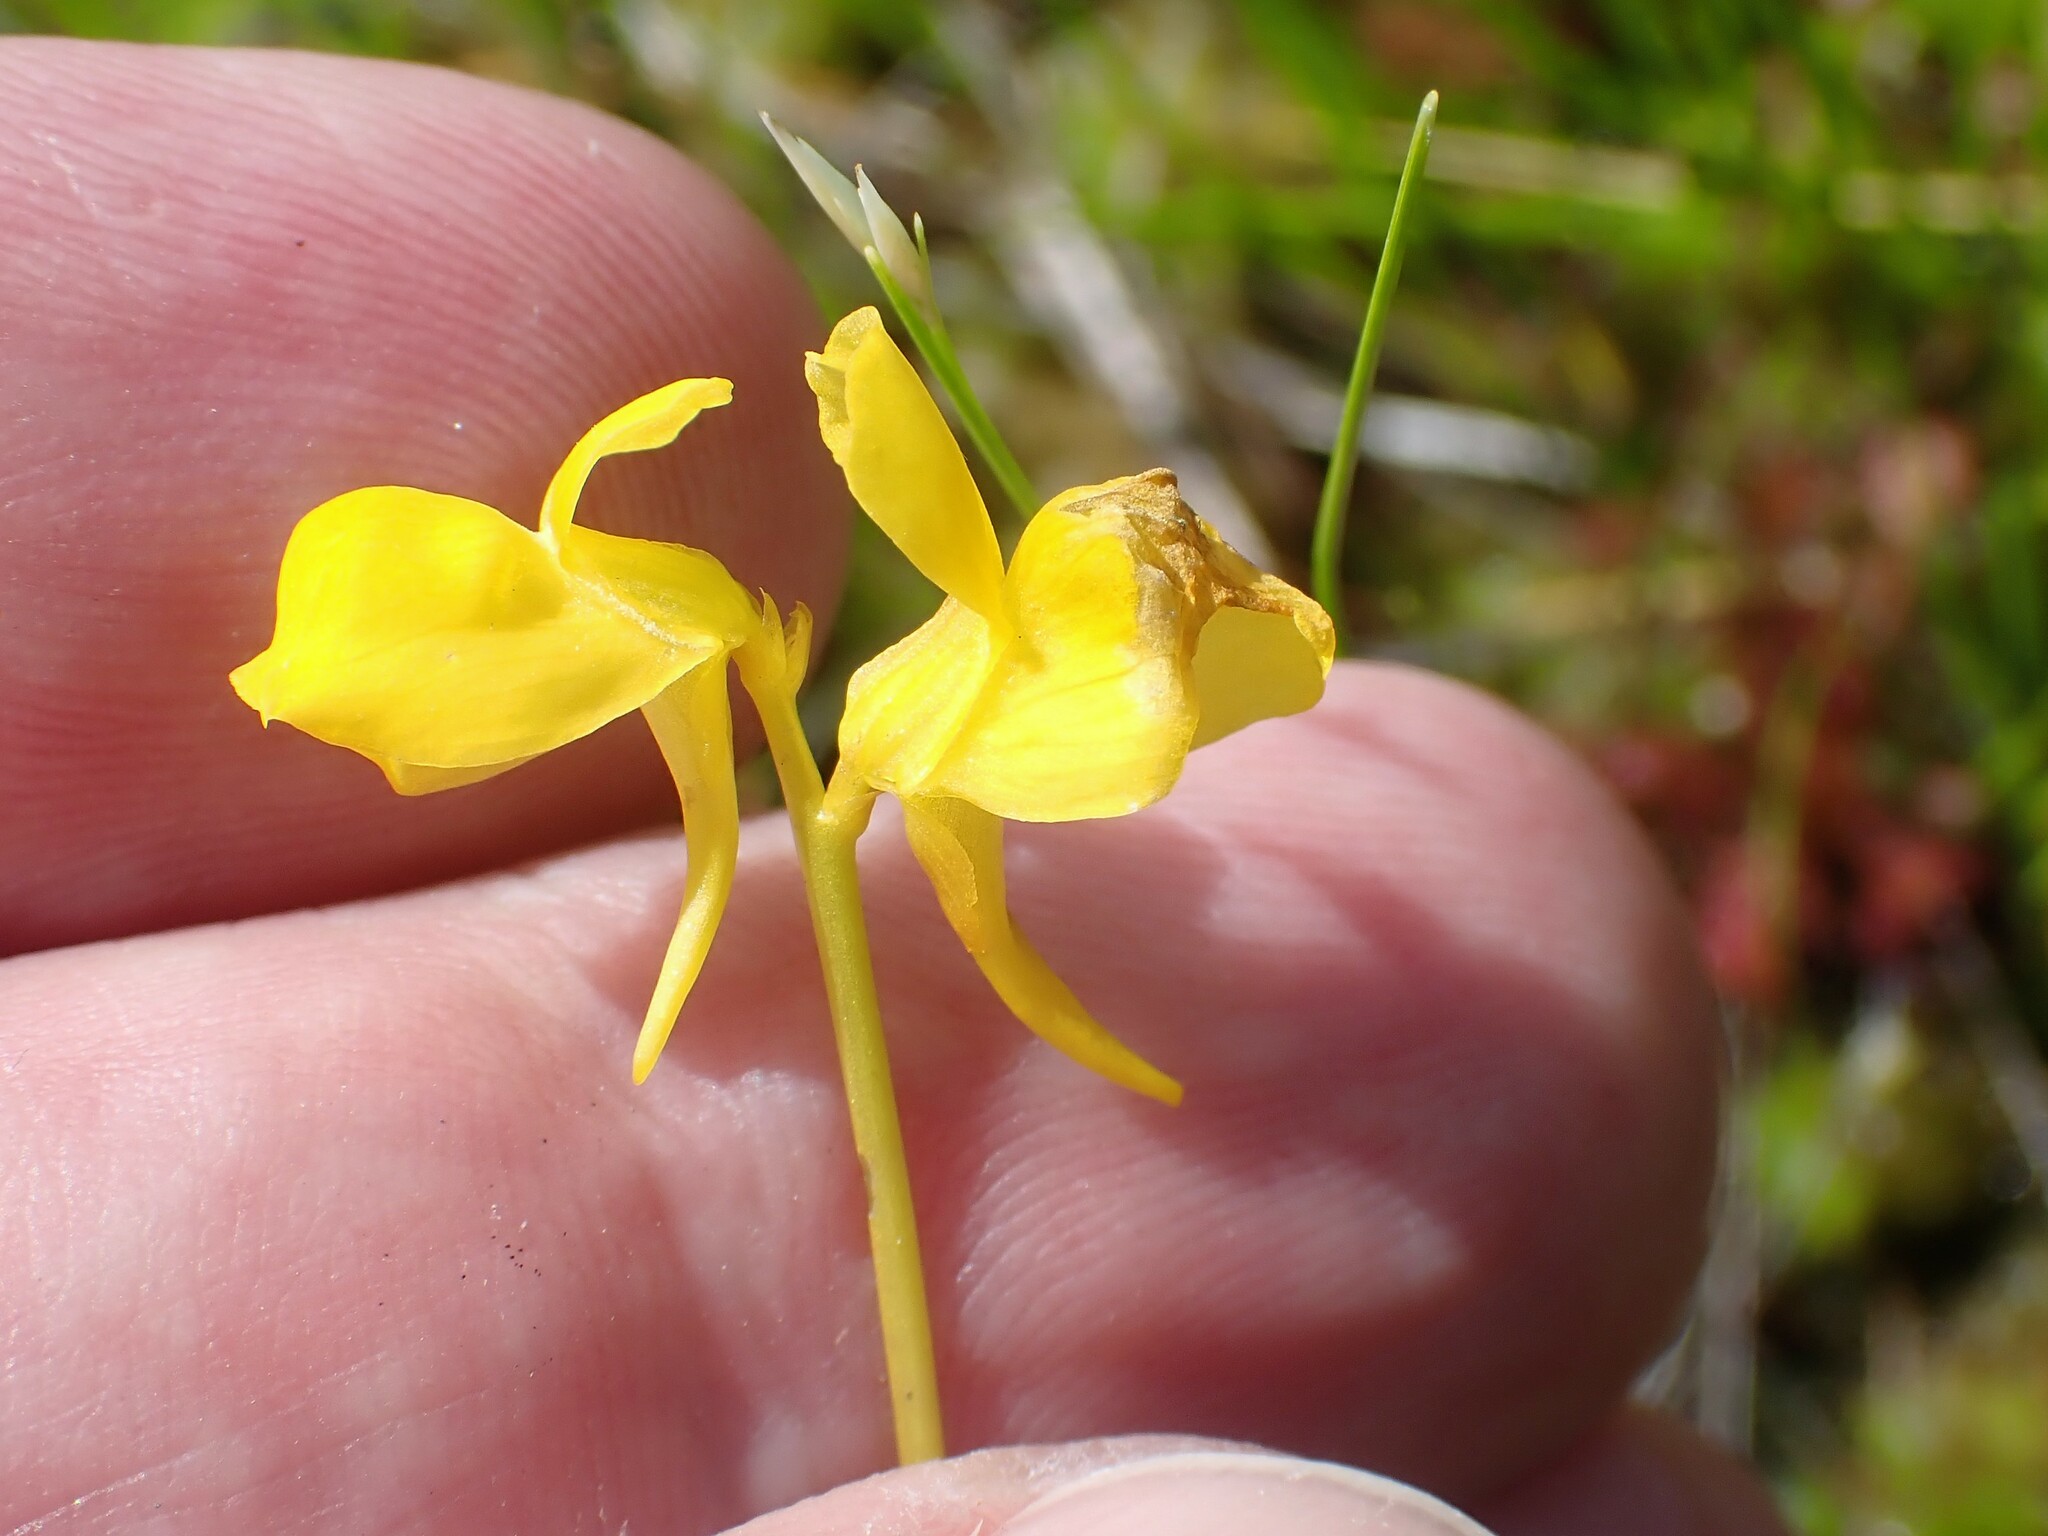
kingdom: Plantae
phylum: Tracheophyta
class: Magnoliopsida
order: Lamiales
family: Lentibulariaceae
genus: Utricularia
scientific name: Utricularia cornuta
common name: Horned bladderwort
